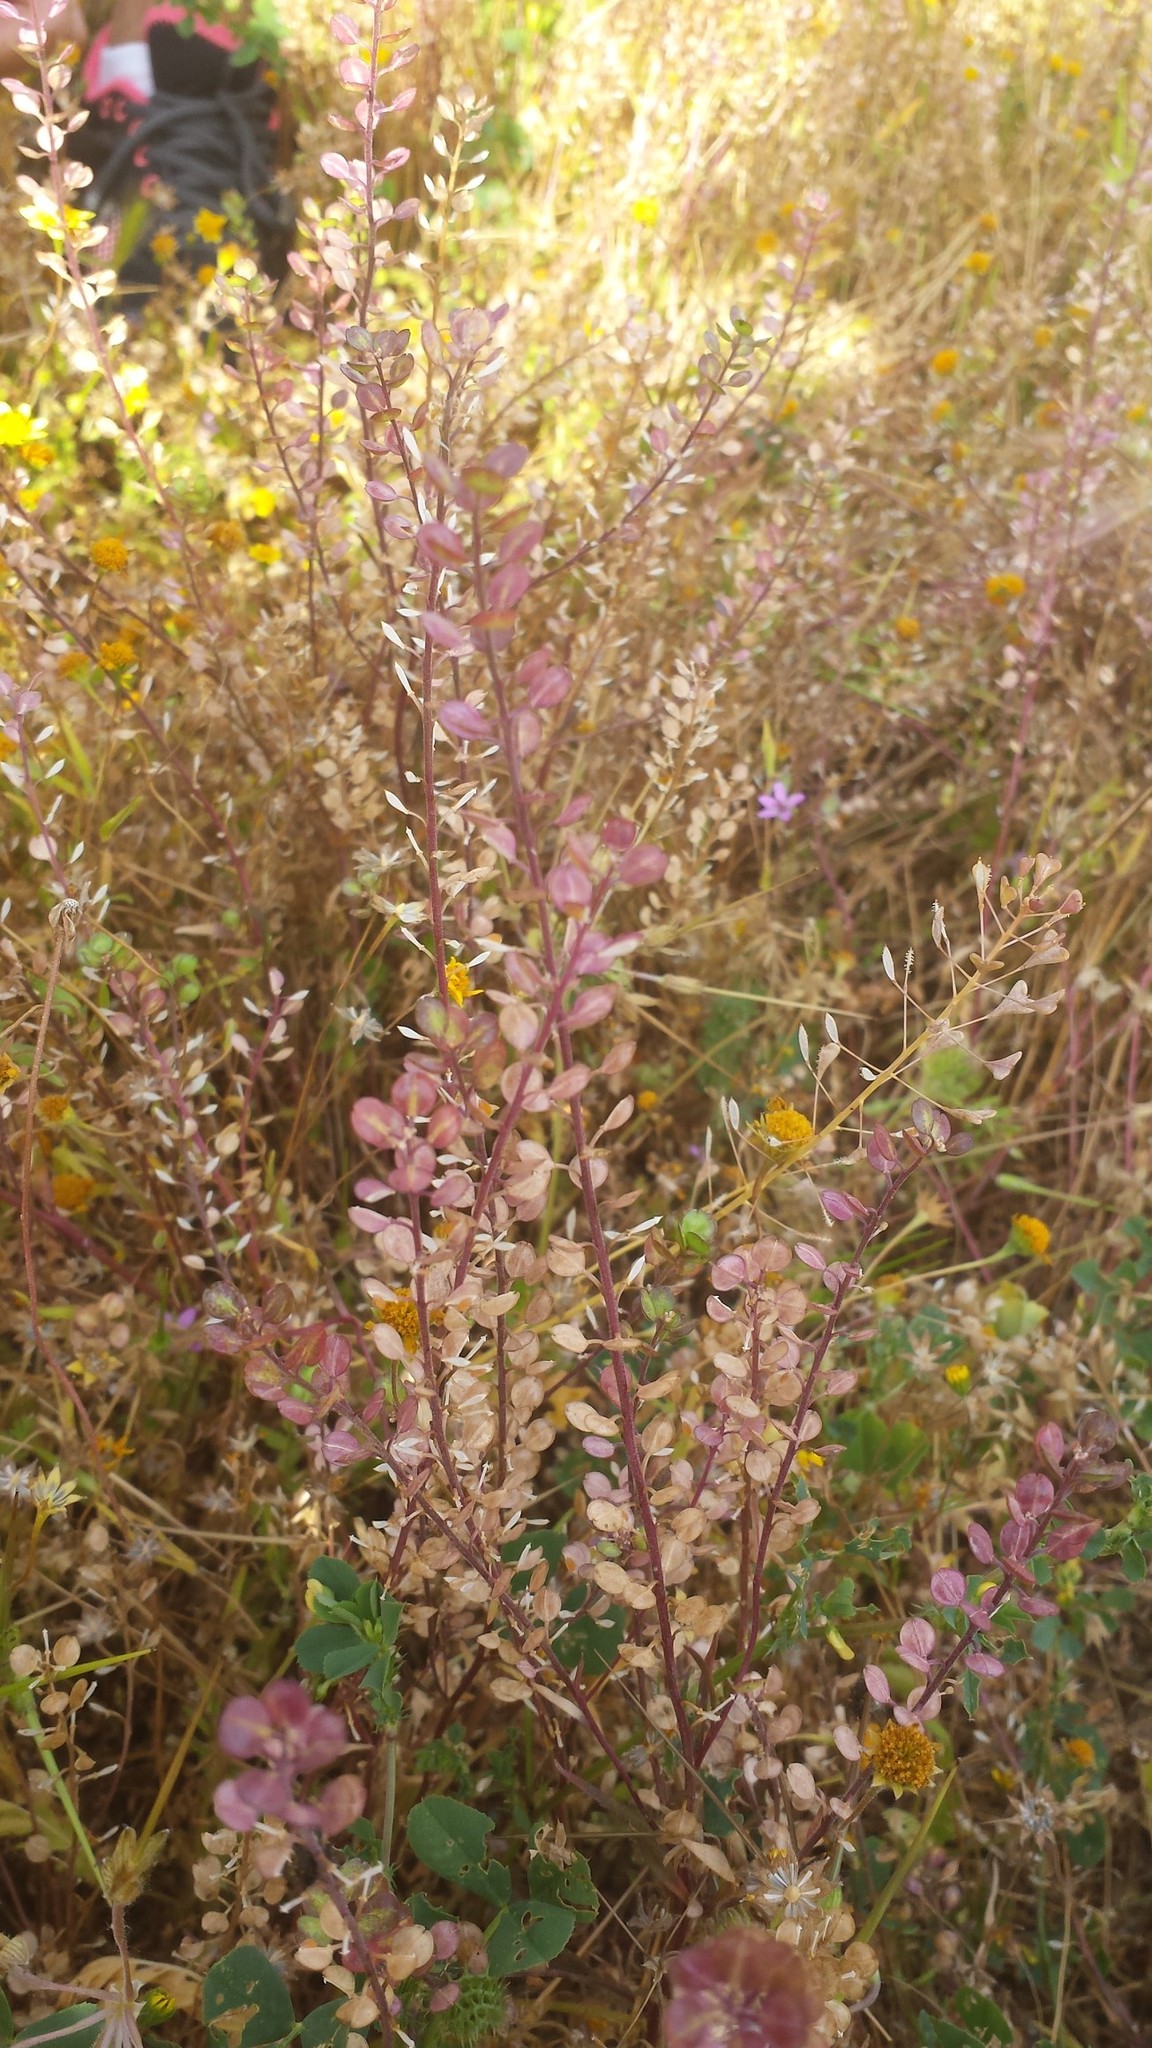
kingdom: Plantae
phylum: Tracheophyta
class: Magnoliopsida
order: Brassicales
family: Brassicaceae
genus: Lepidium
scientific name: Lepidium nitidum
